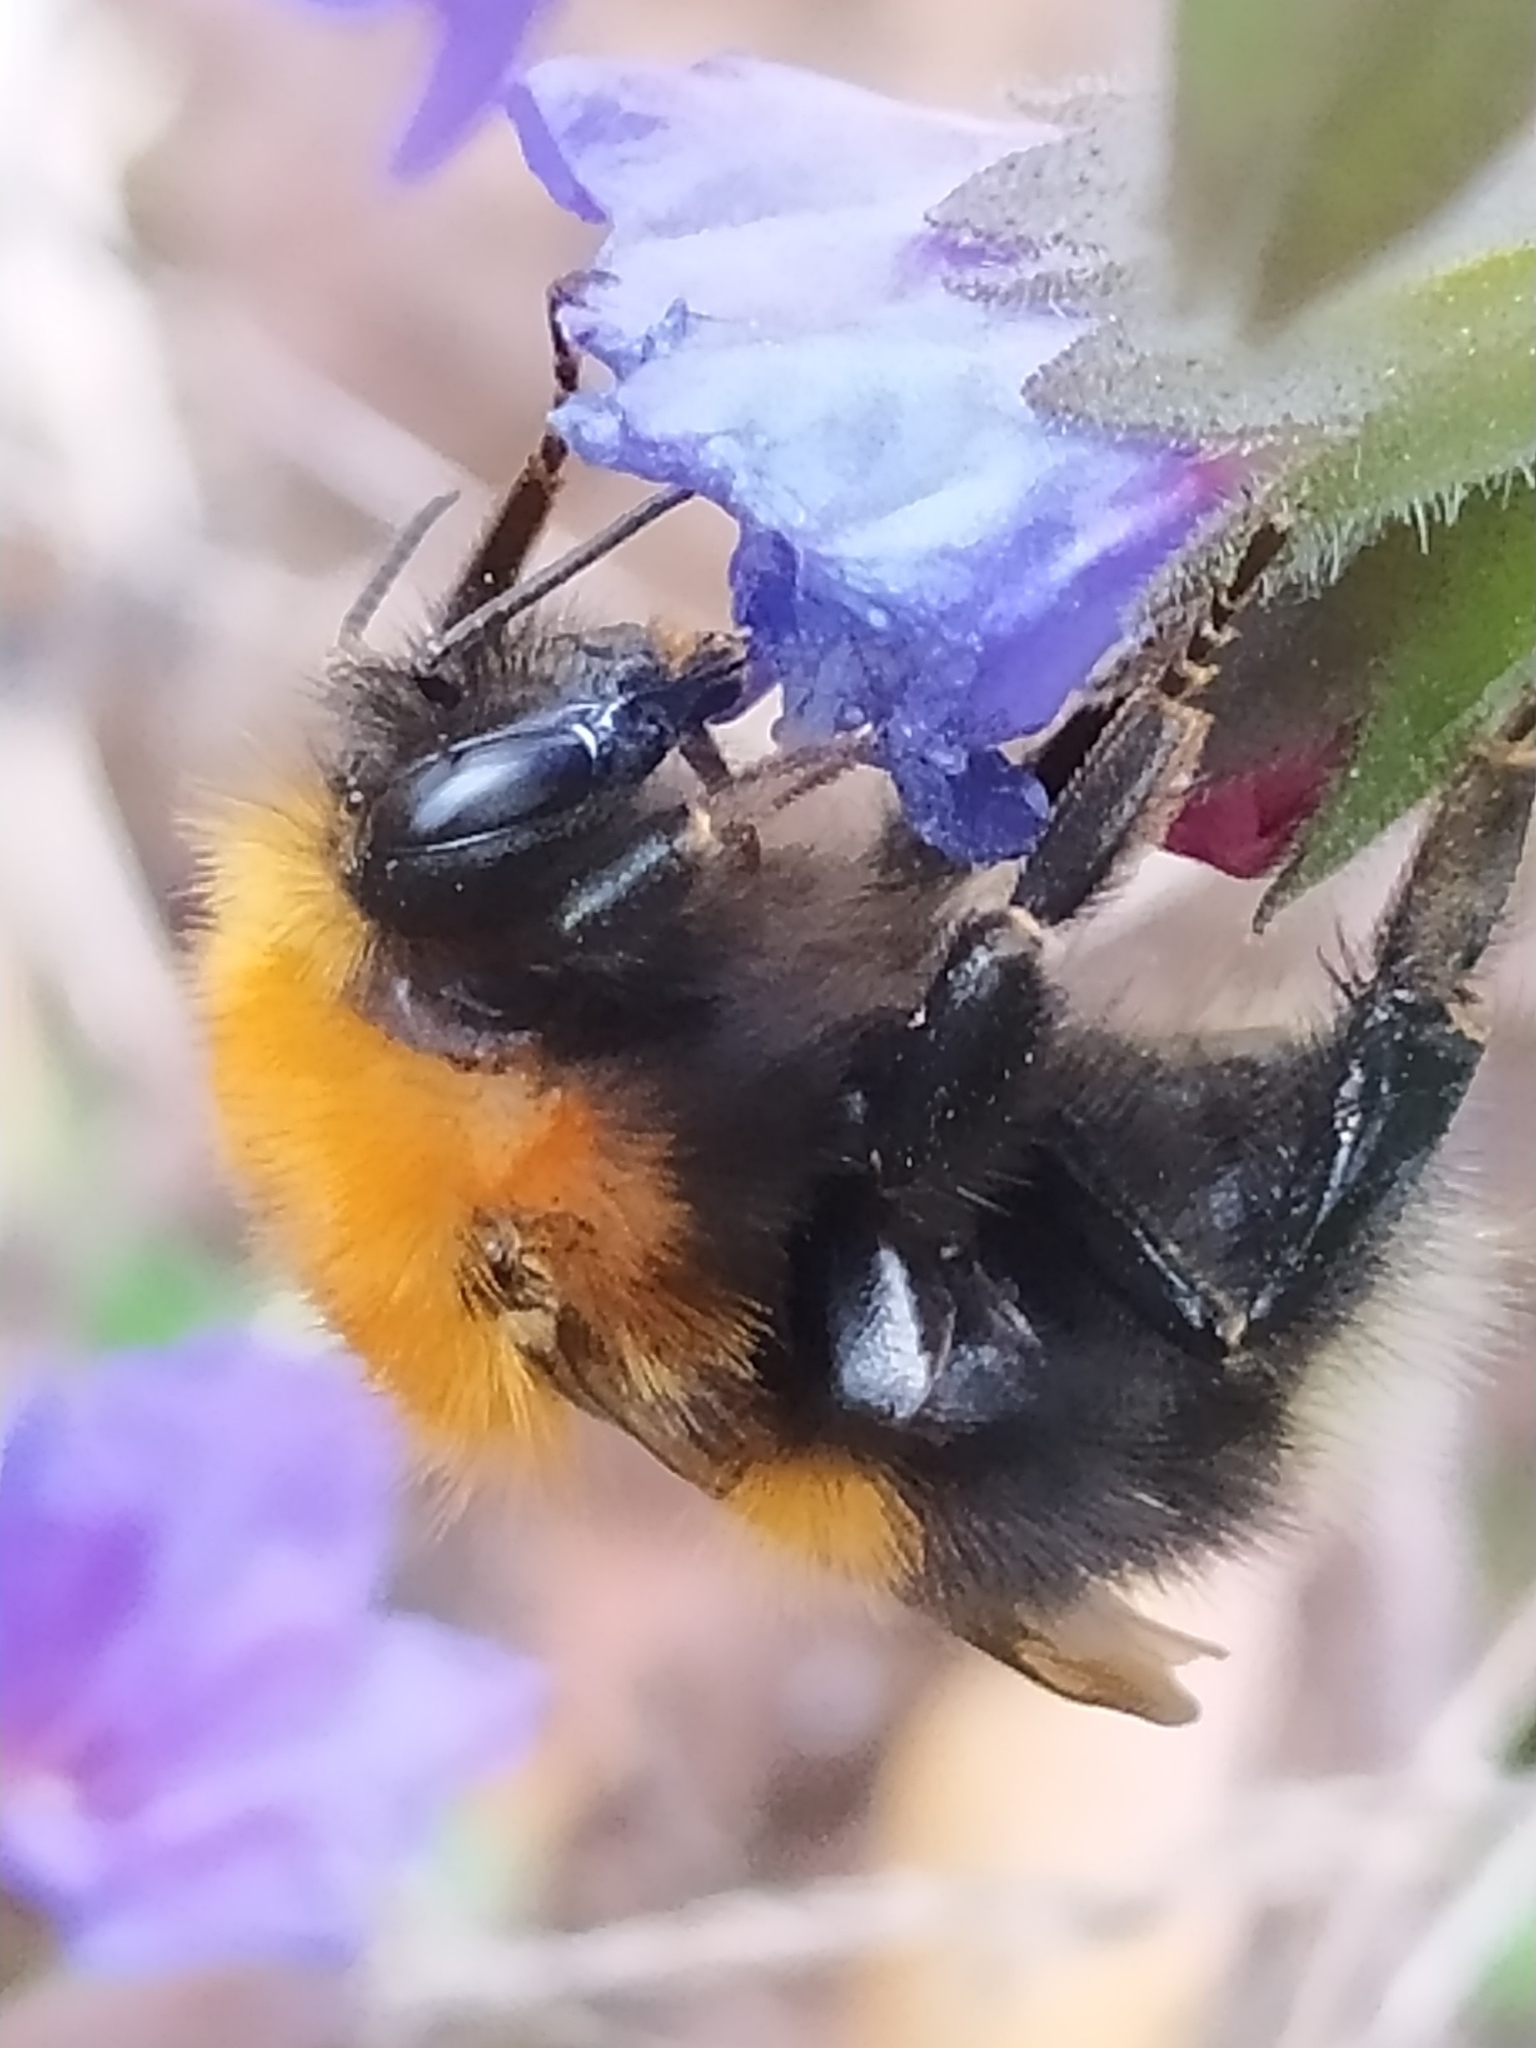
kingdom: Animalia
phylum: Arthropoda
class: Insecta
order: Hymenoptera
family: Apidae
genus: Bombus
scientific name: Bombus hypnorum
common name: New garden bumblebee
